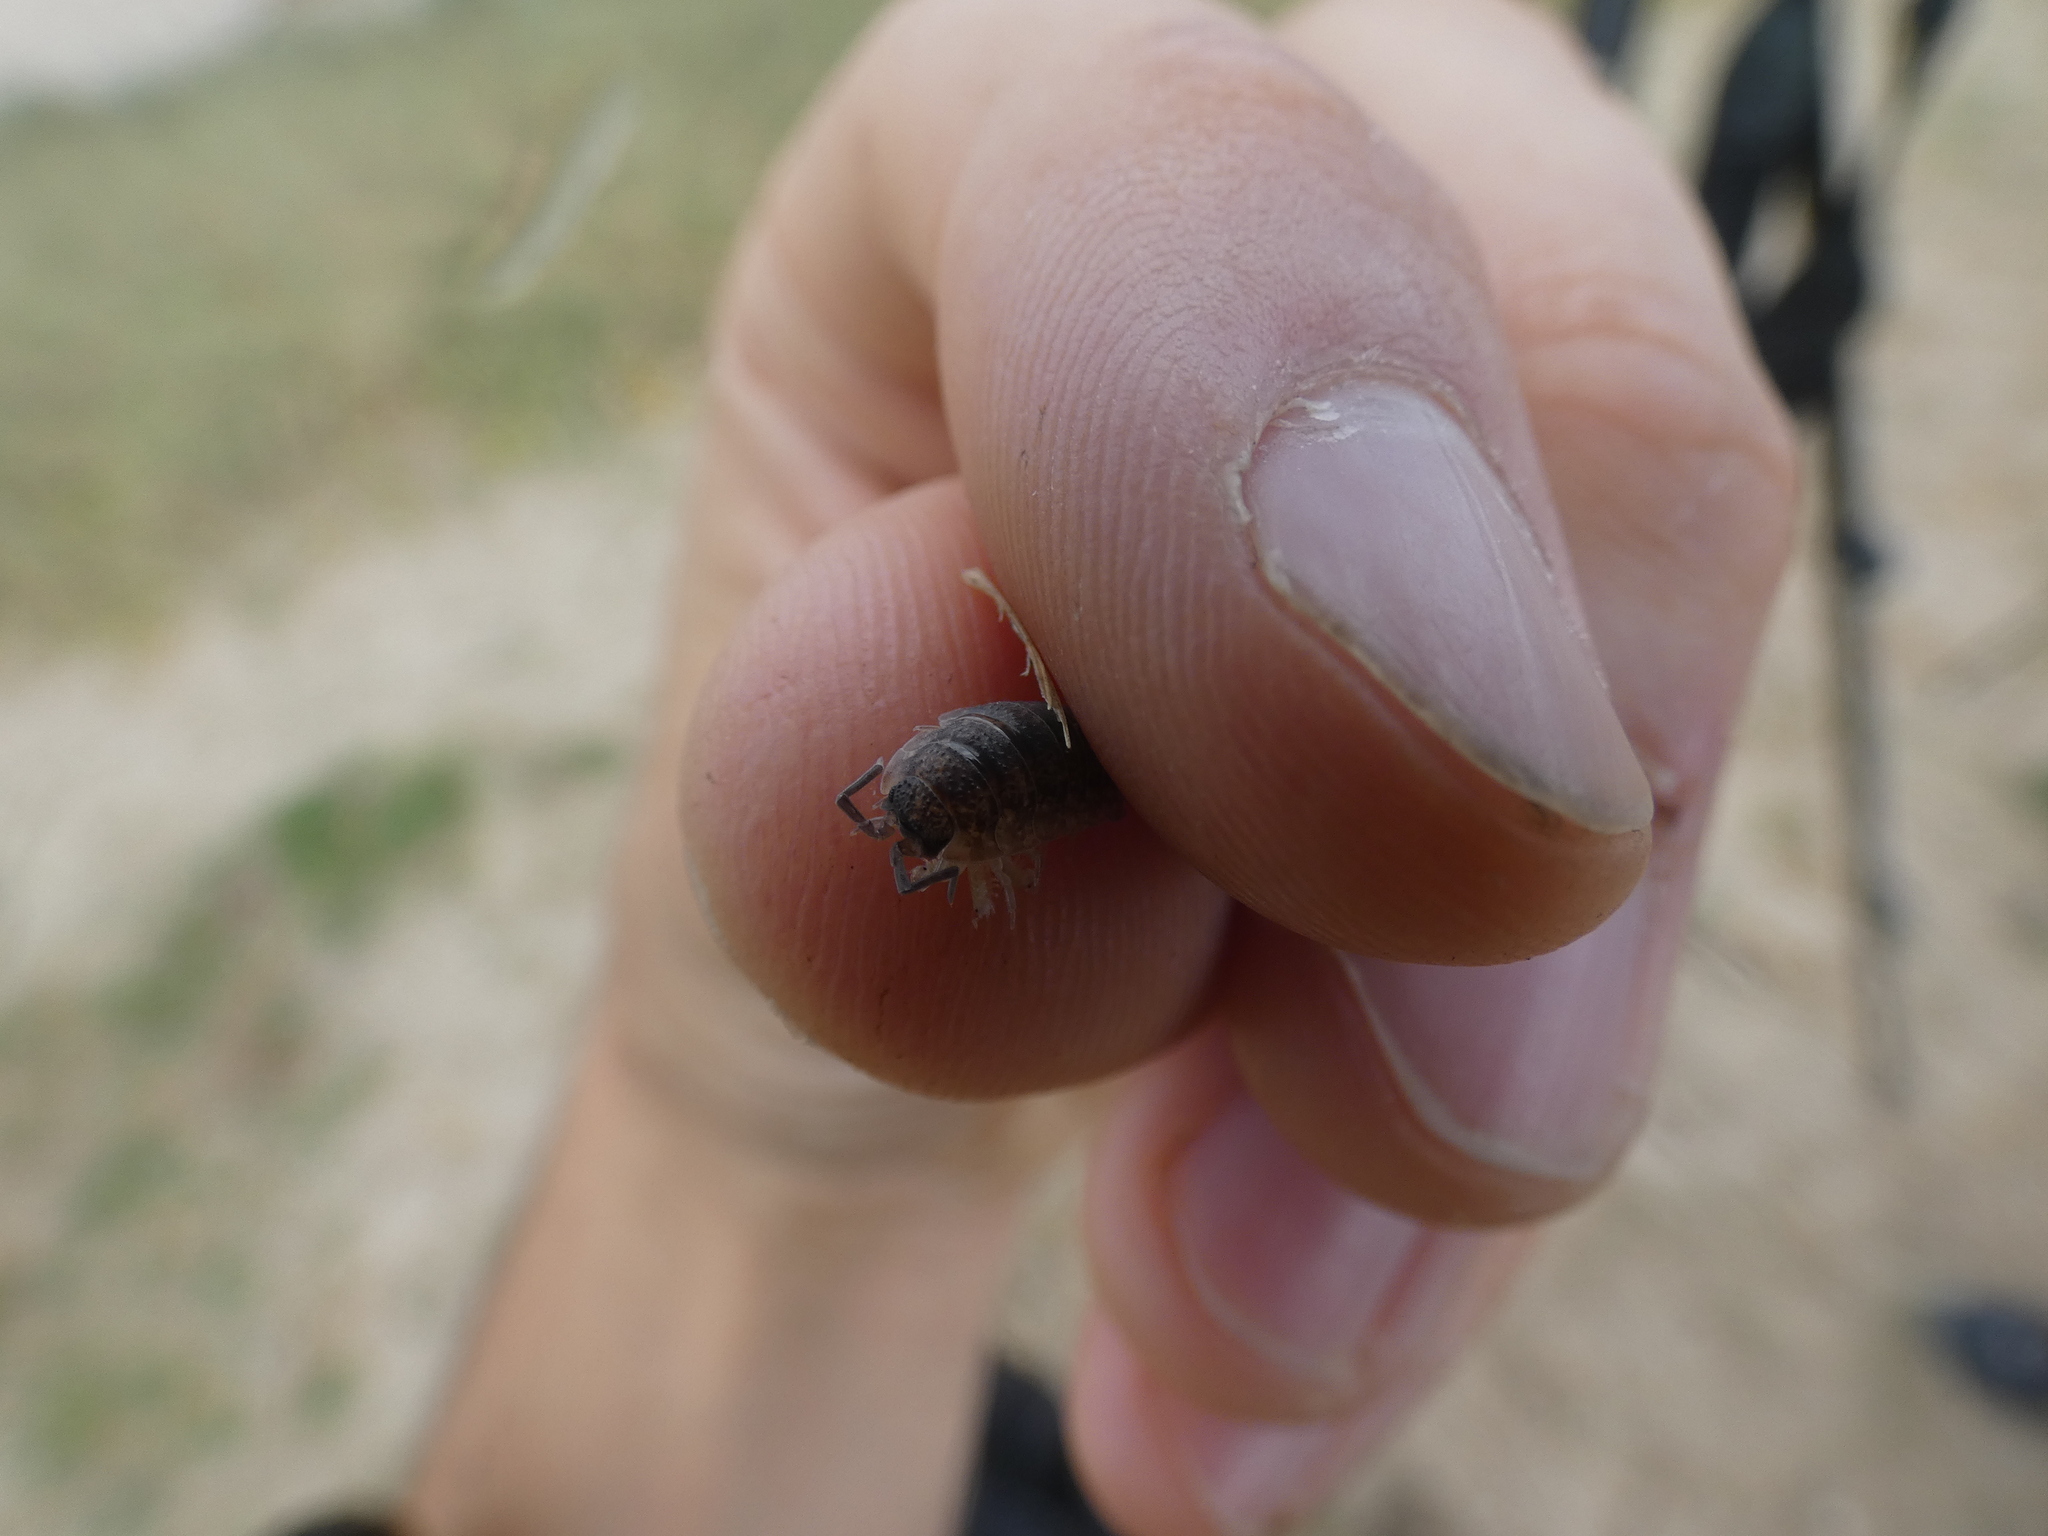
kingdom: Animalia
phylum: Arthropoda
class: Malacostraca
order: Isopoda
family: Porcellionidae
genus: Porcellio
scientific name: Porcellio scaber
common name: Common rough woodlouse
